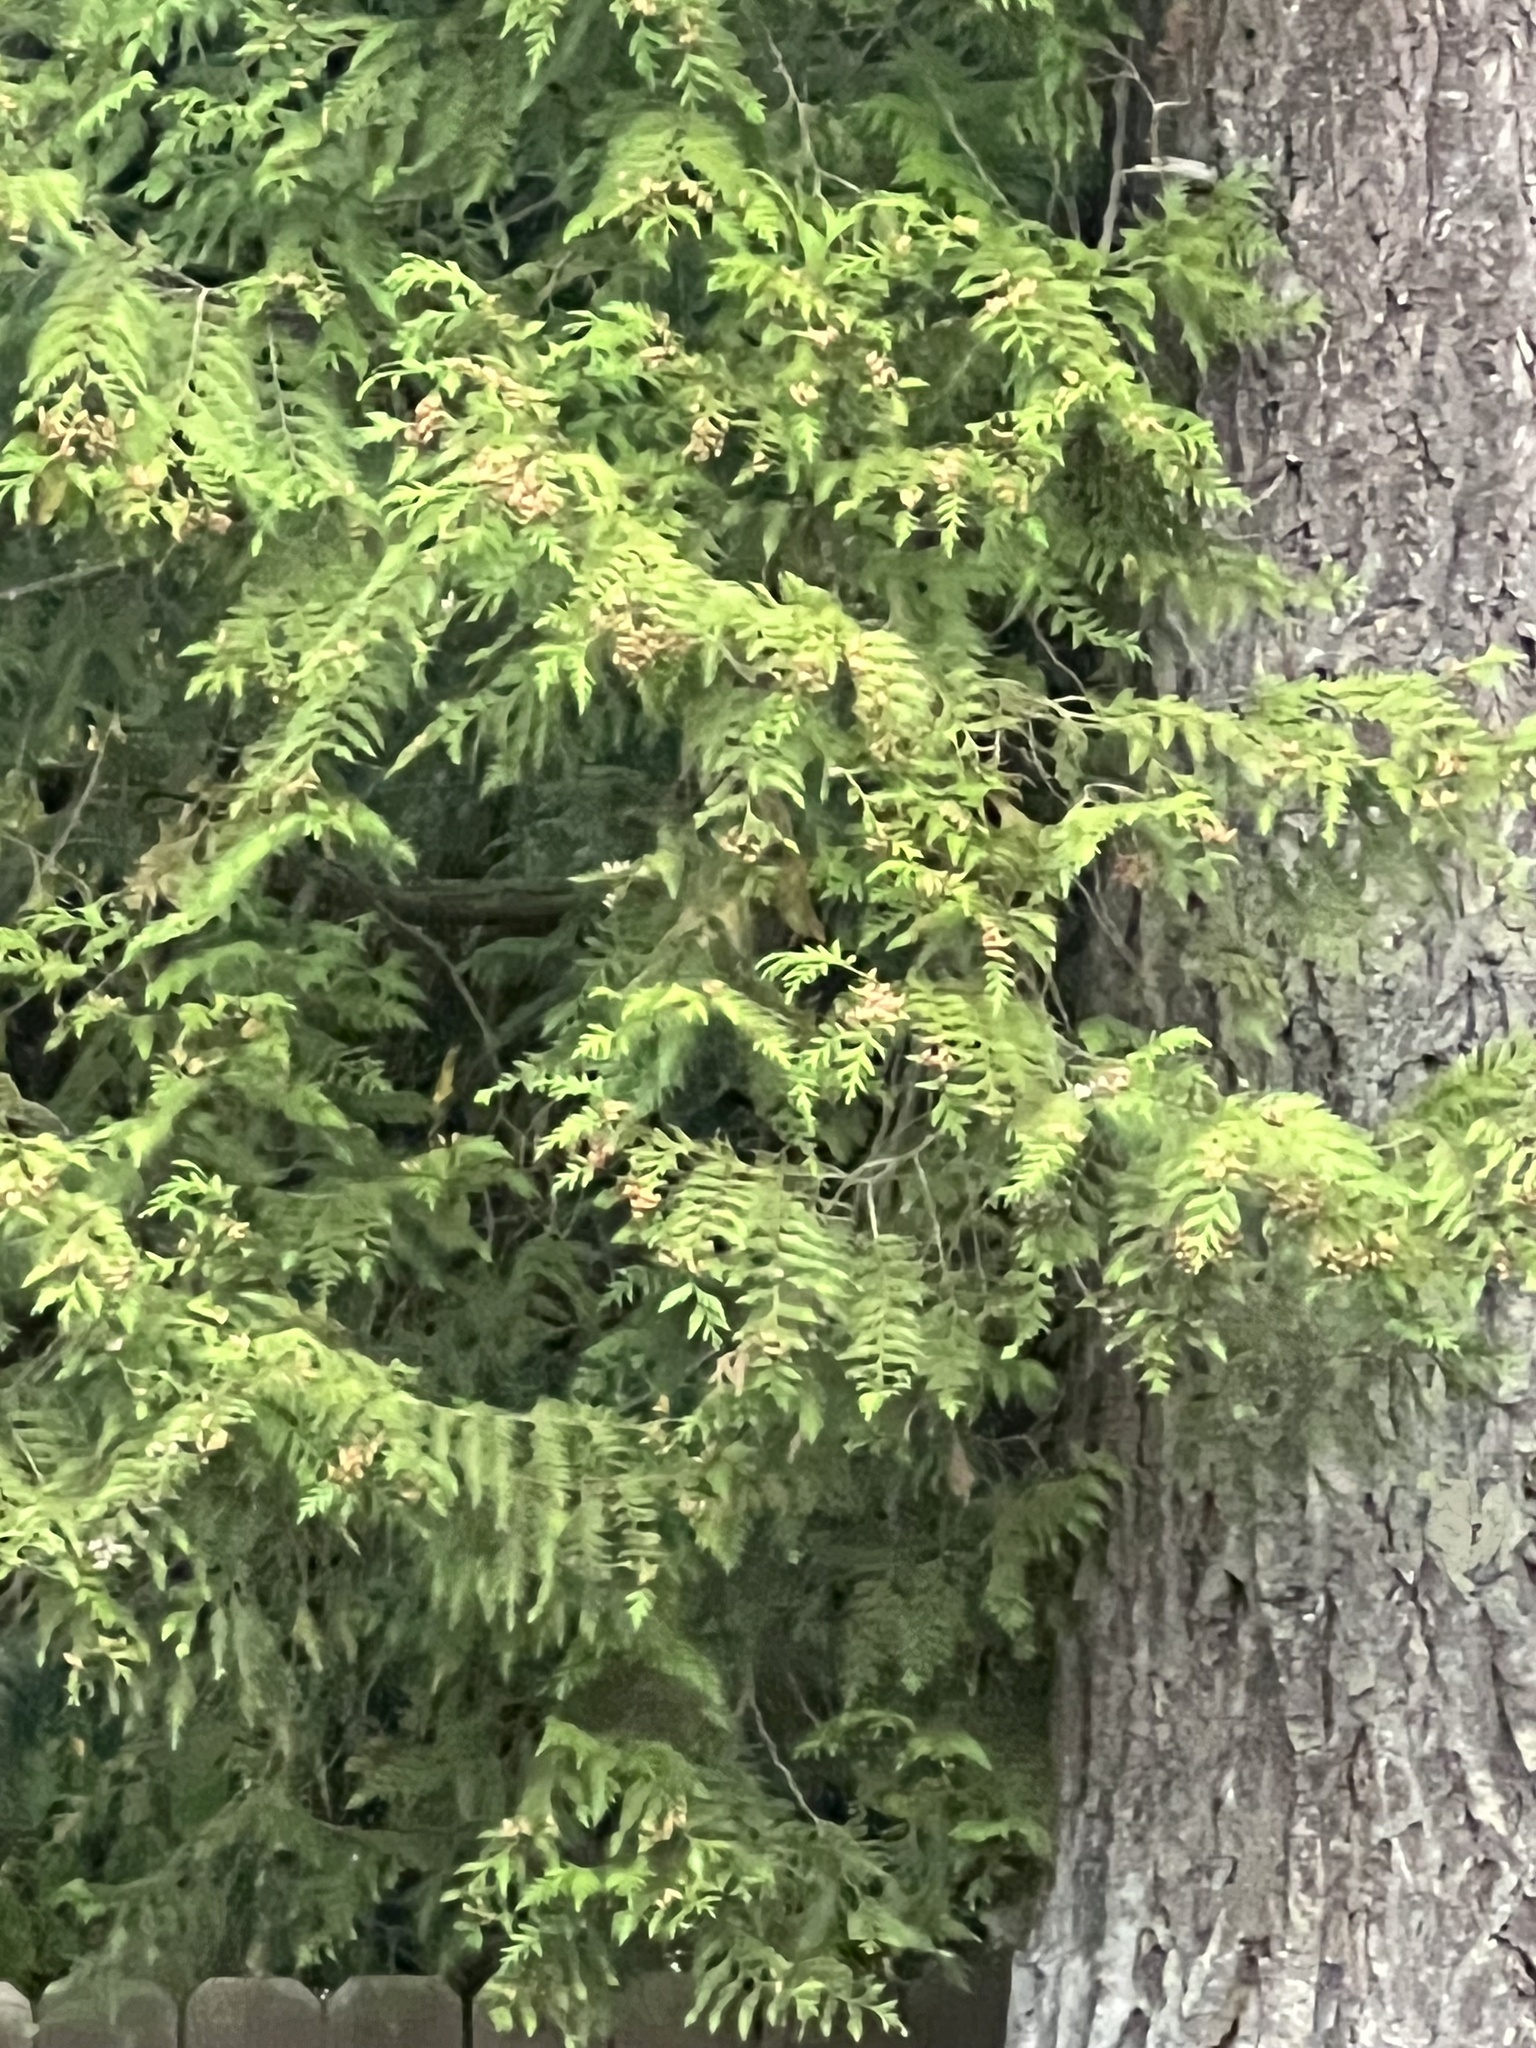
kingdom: Plantae
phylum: Tracheophyta
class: Pinopsida
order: Pinales
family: Cupressaceae
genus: Thuja
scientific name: Thuja plicata
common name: Western red-cedar
